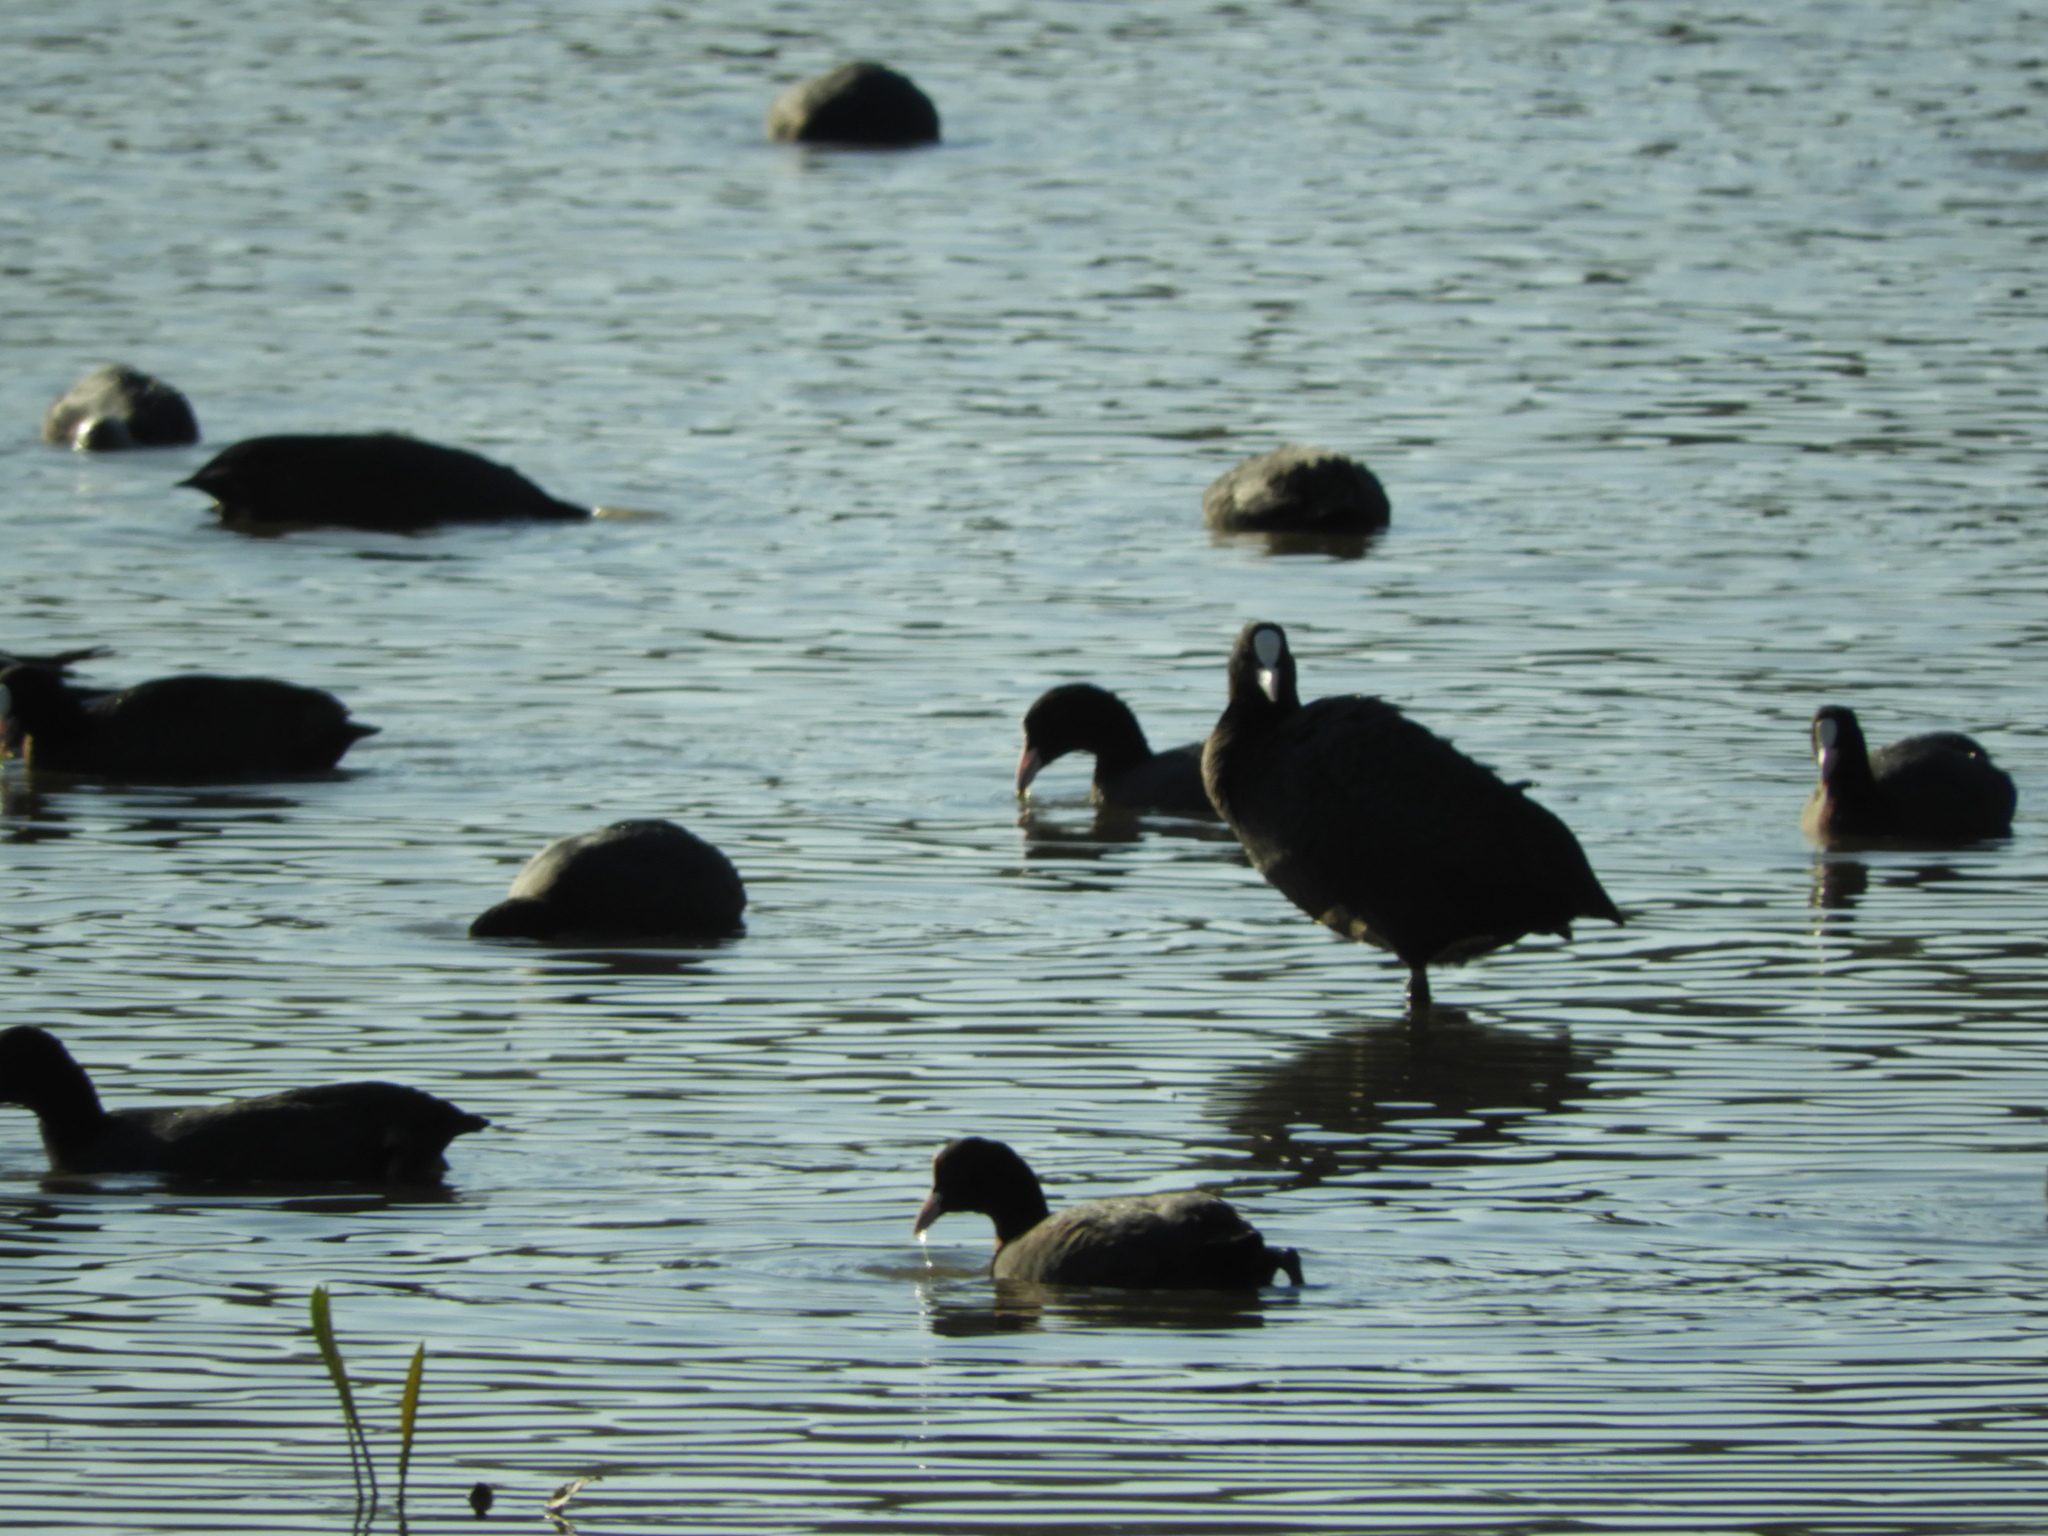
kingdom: Animalia
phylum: Chordata
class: Aves
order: Gruiformes
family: Rallidae
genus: Fulica
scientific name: Fulica atra
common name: Eurasian coot
